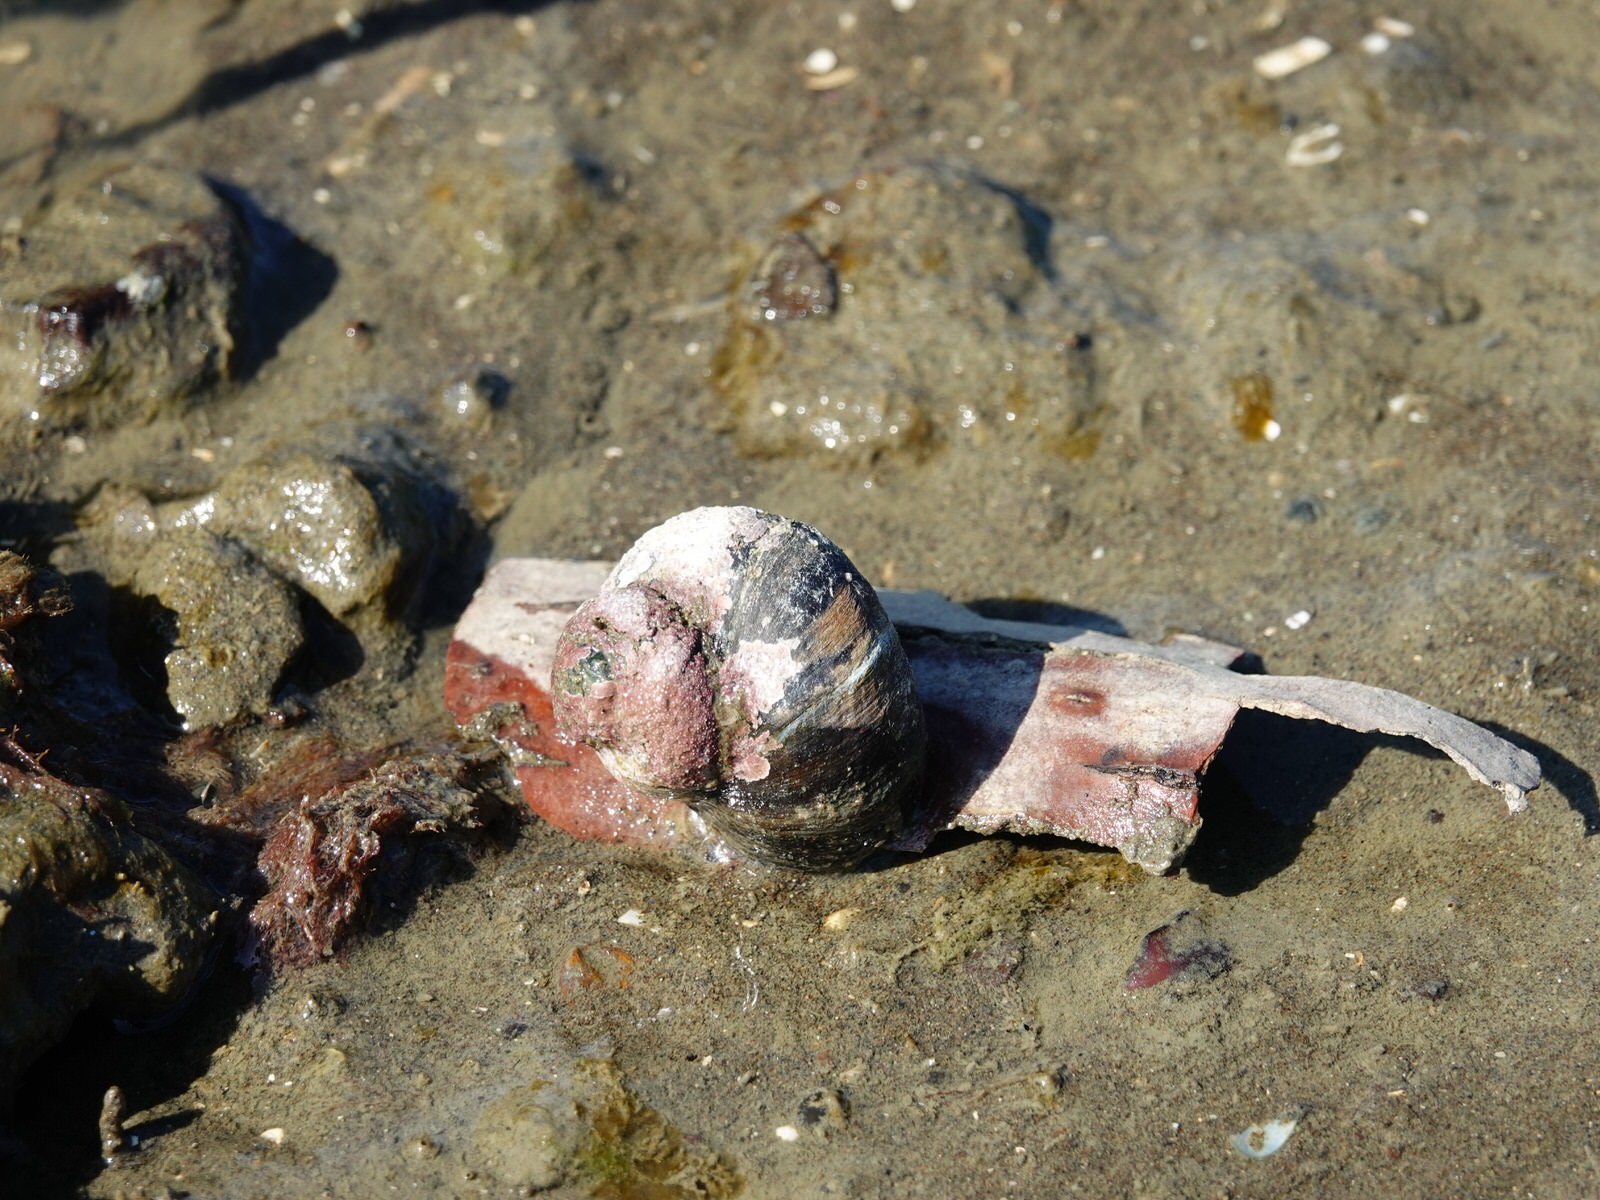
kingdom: Animalia
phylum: Mollusca
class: Gastropoda
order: Trochida
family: Turbinidae
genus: Lunella
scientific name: Lunella smaragda
